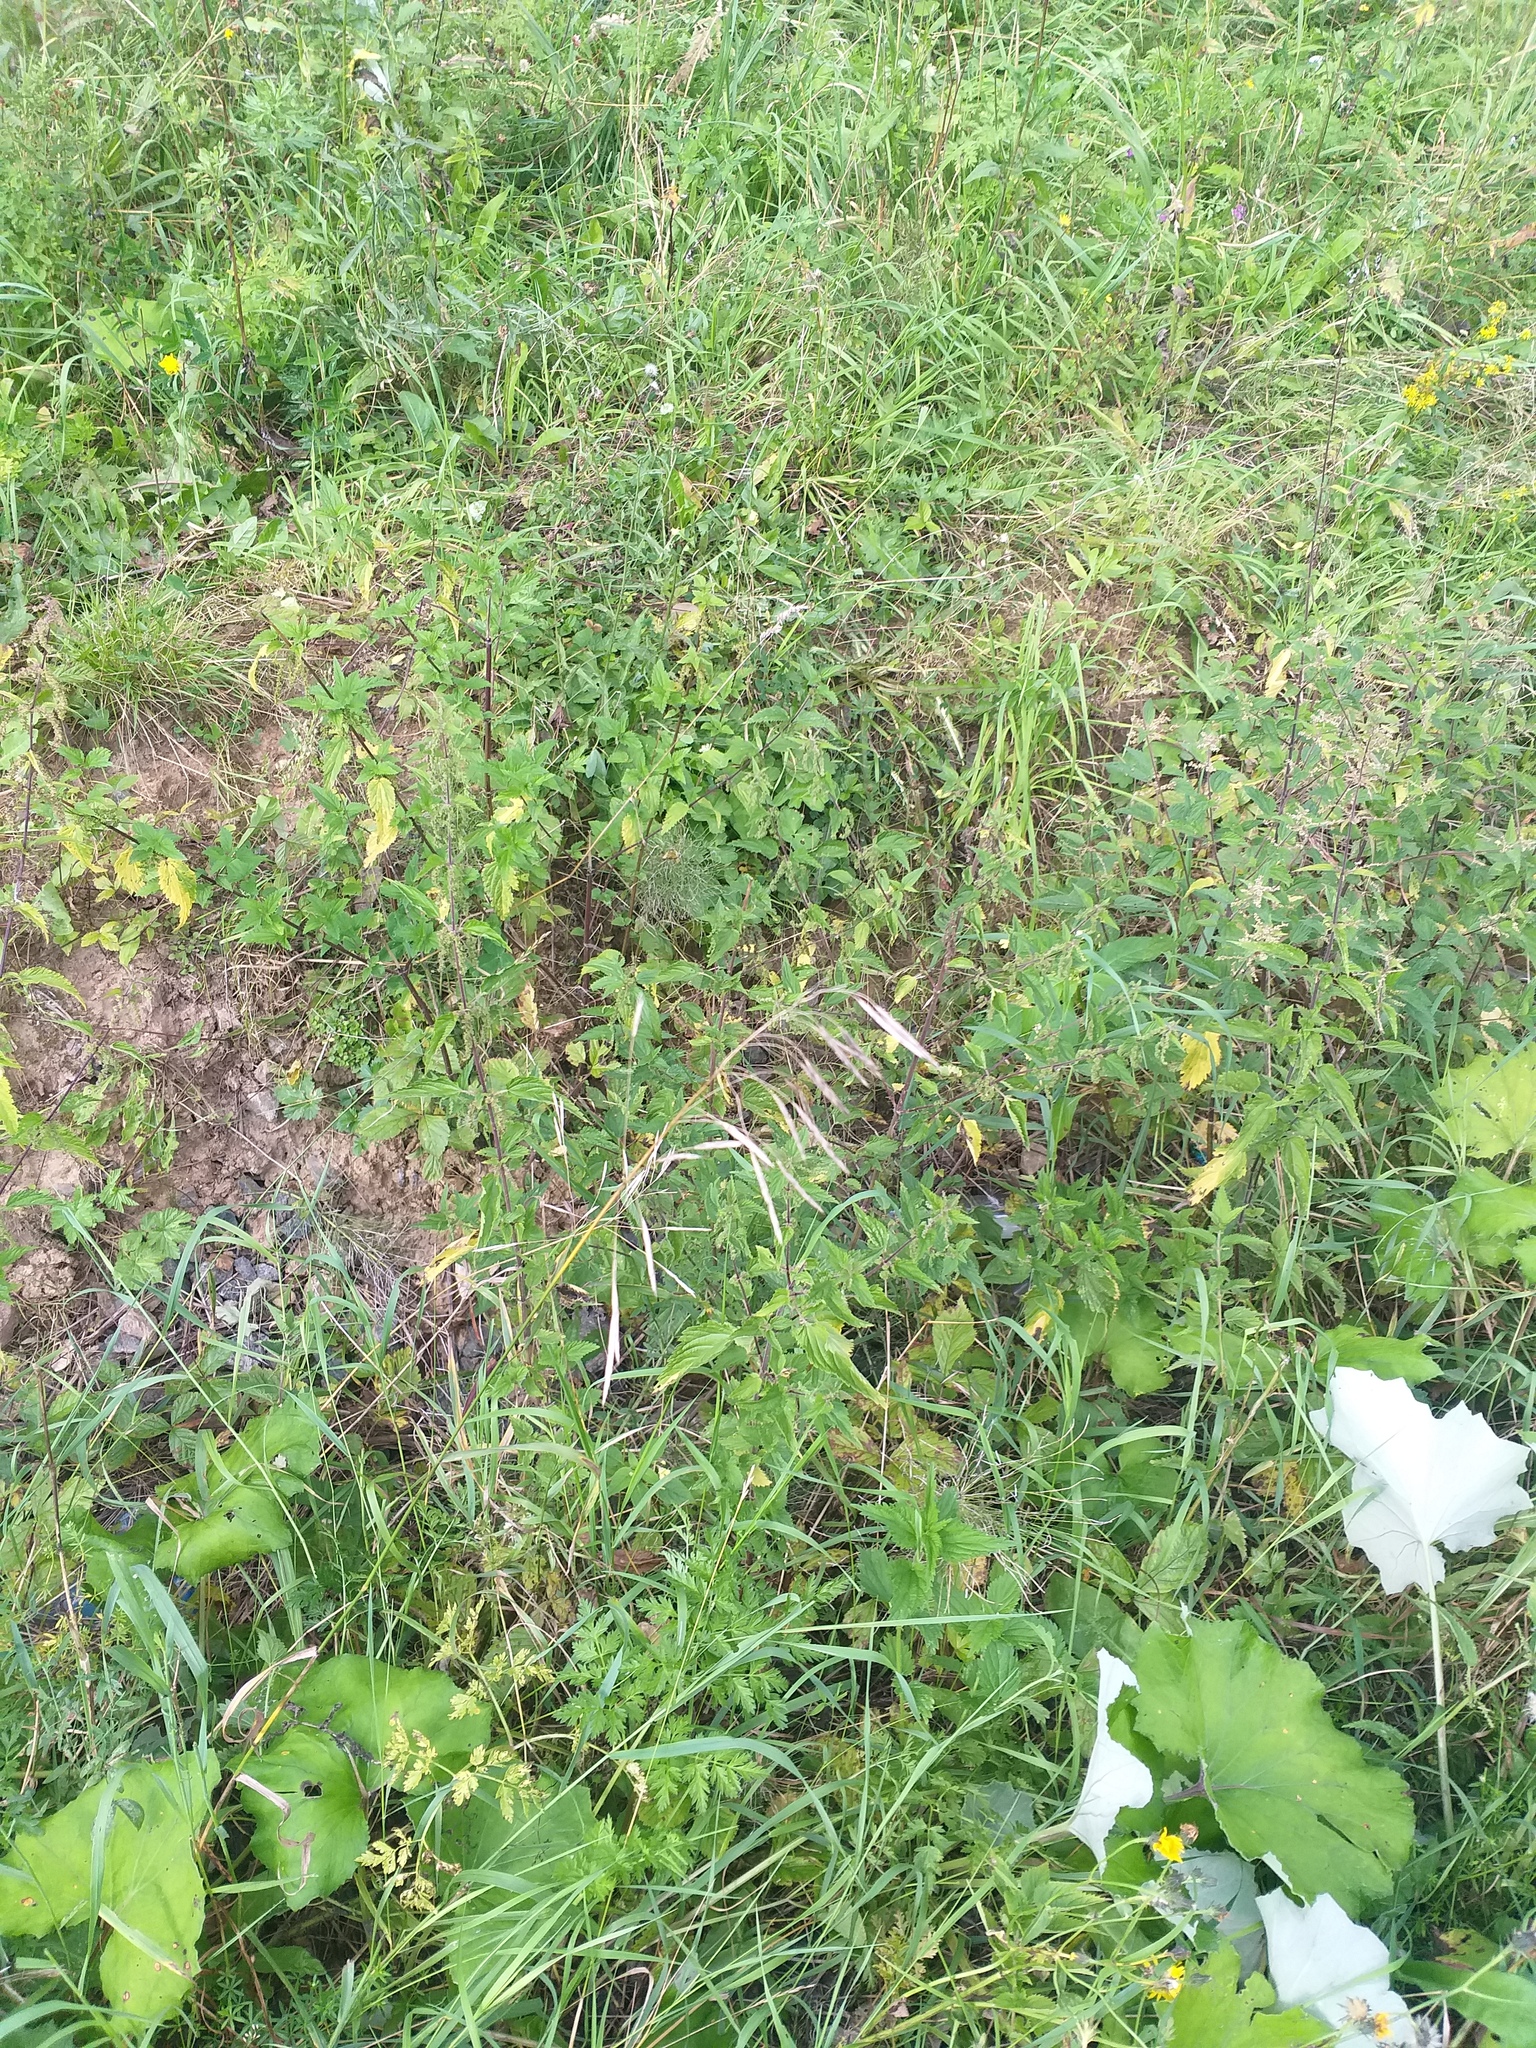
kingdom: Plantae
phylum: Tracheophyta
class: Liliopsida
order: Poales
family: Poaceae
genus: Bromus
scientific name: Bromus inermis
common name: Smooth brome
